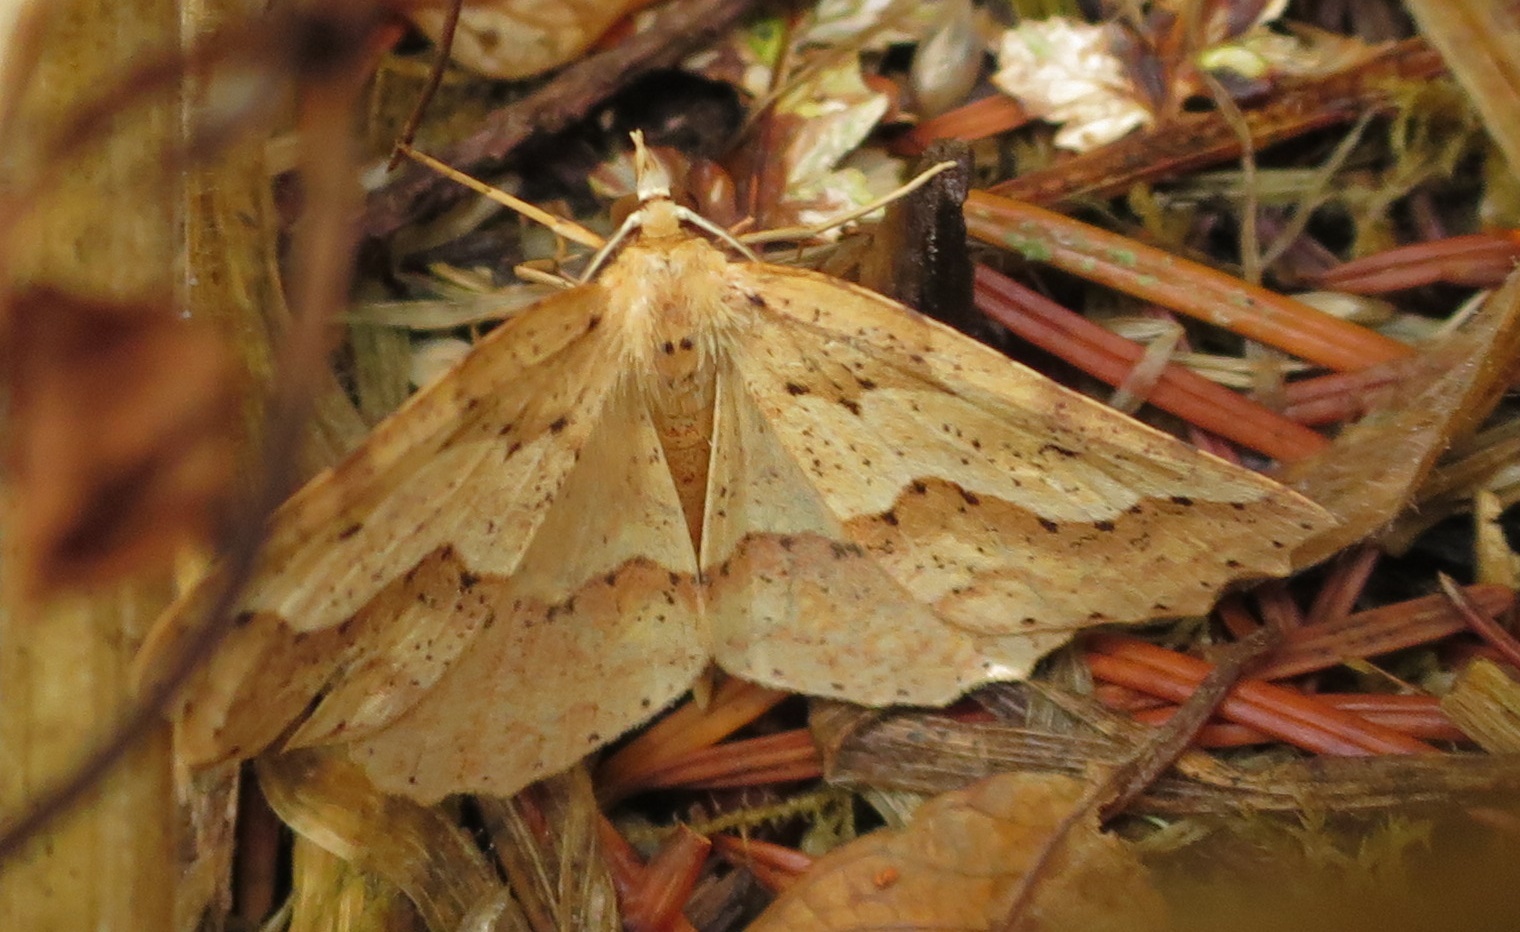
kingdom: Animalia
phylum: Arthropoda
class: Insecta
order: Lepidoptera
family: Geometridae
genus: Ischalis
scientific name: Ischalis variabilis
